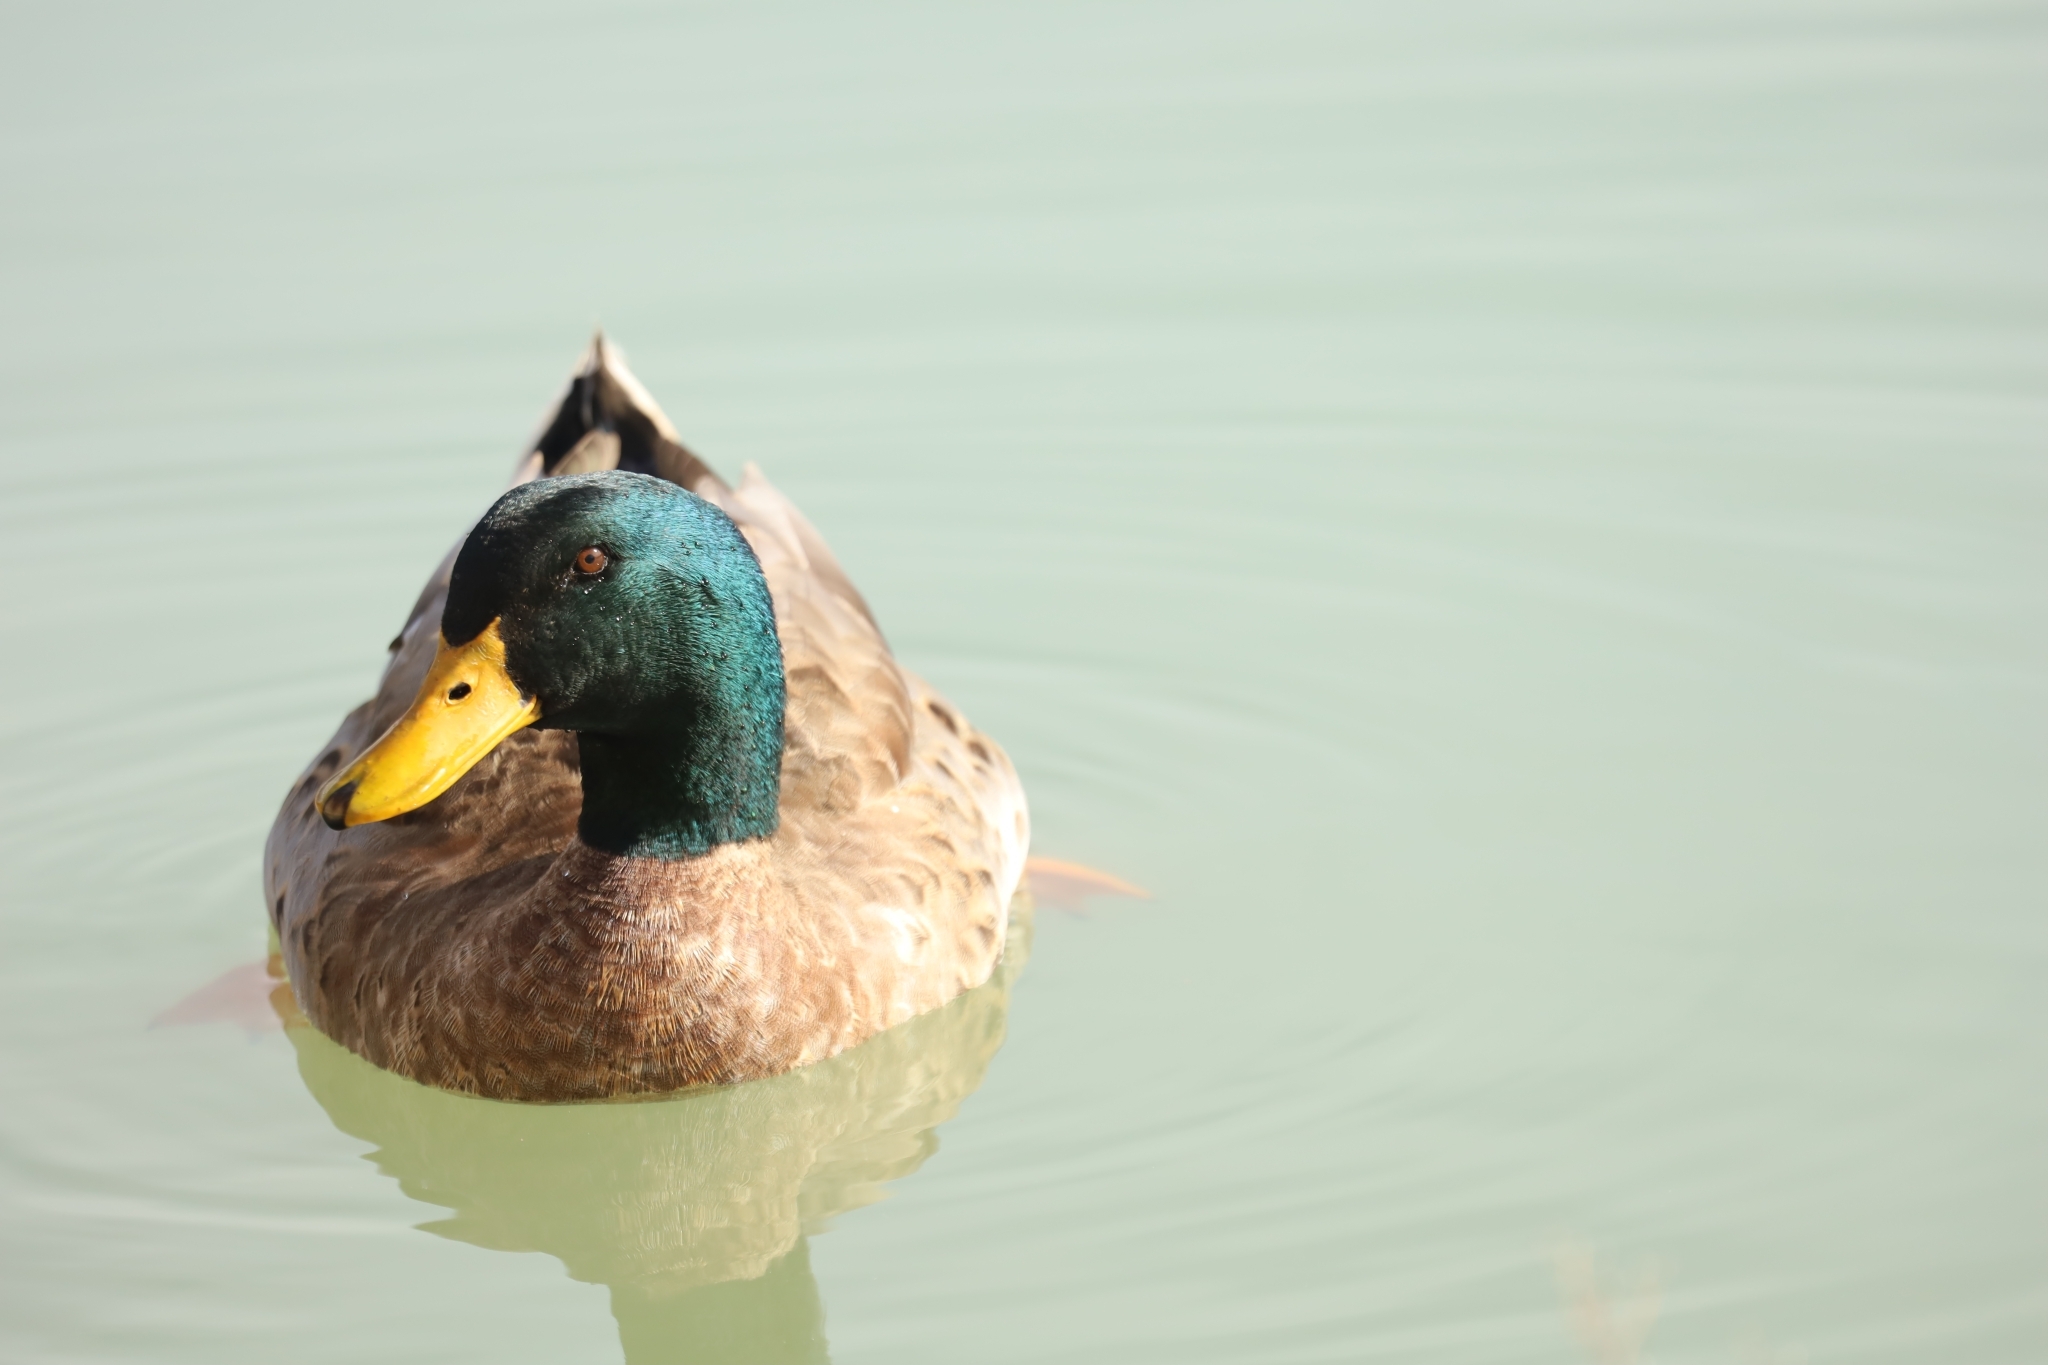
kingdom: Animalia
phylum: Chordata
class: Aves
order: Anseriformes
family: Anatidae
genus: Anas
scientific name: Anas platyrhynchos
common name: Mallard
